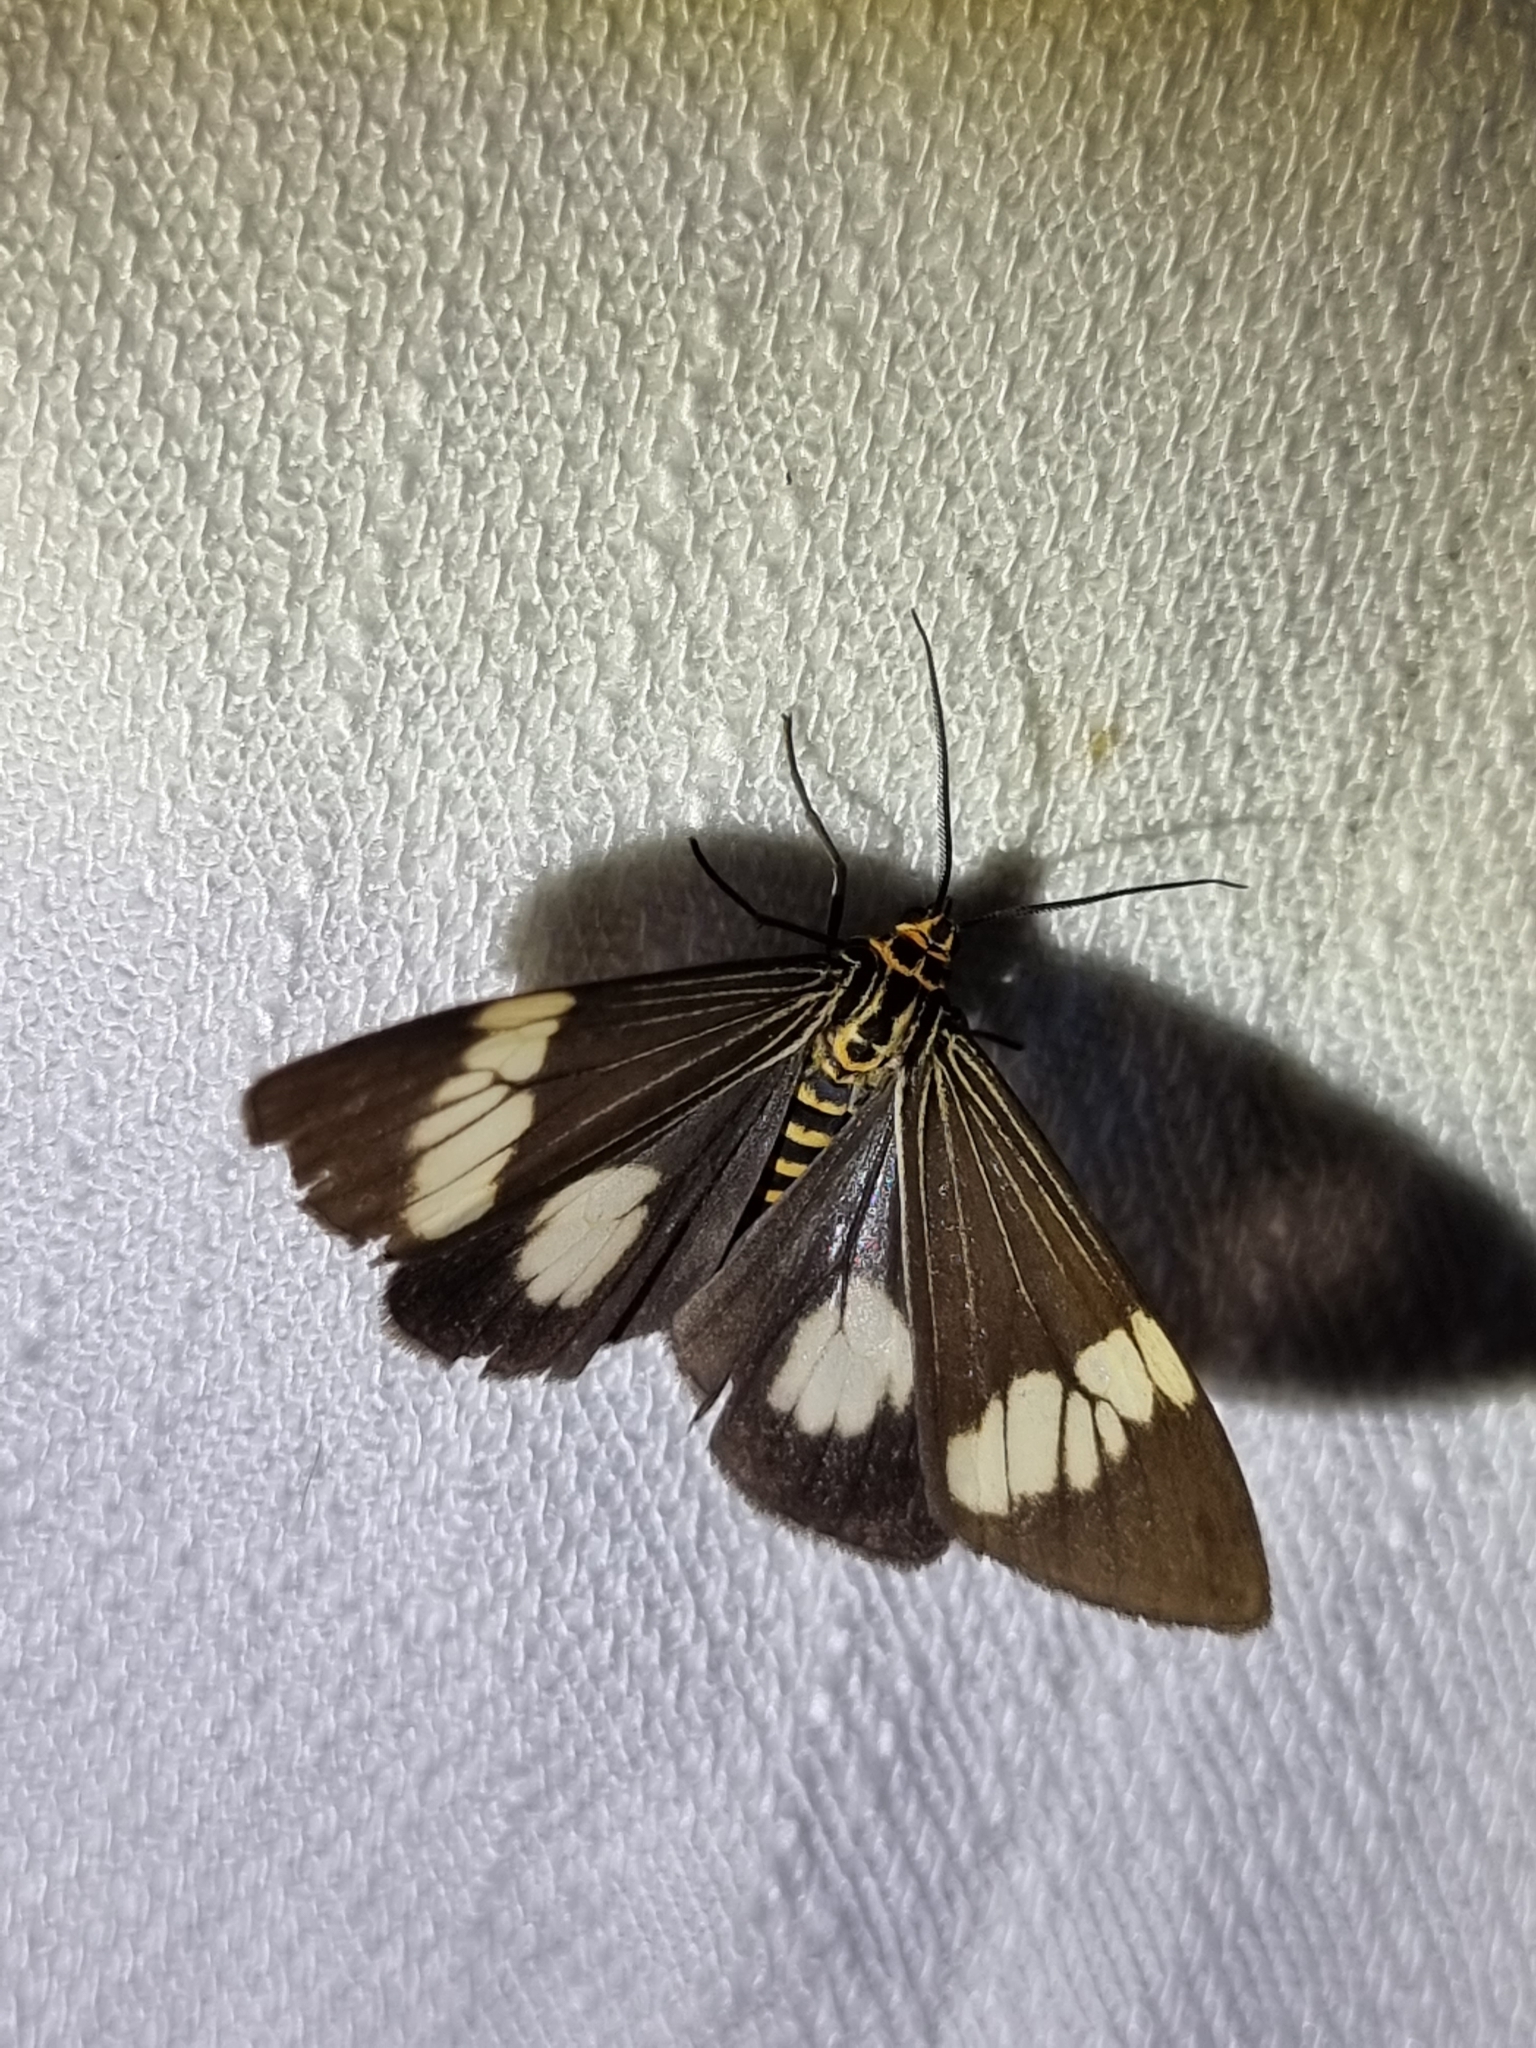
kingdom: Animalia
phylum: Arthropoda
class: Insecta
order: Lepidoptera
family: Erebidae
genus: Nyctemera
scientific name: Nyctemera baulus
